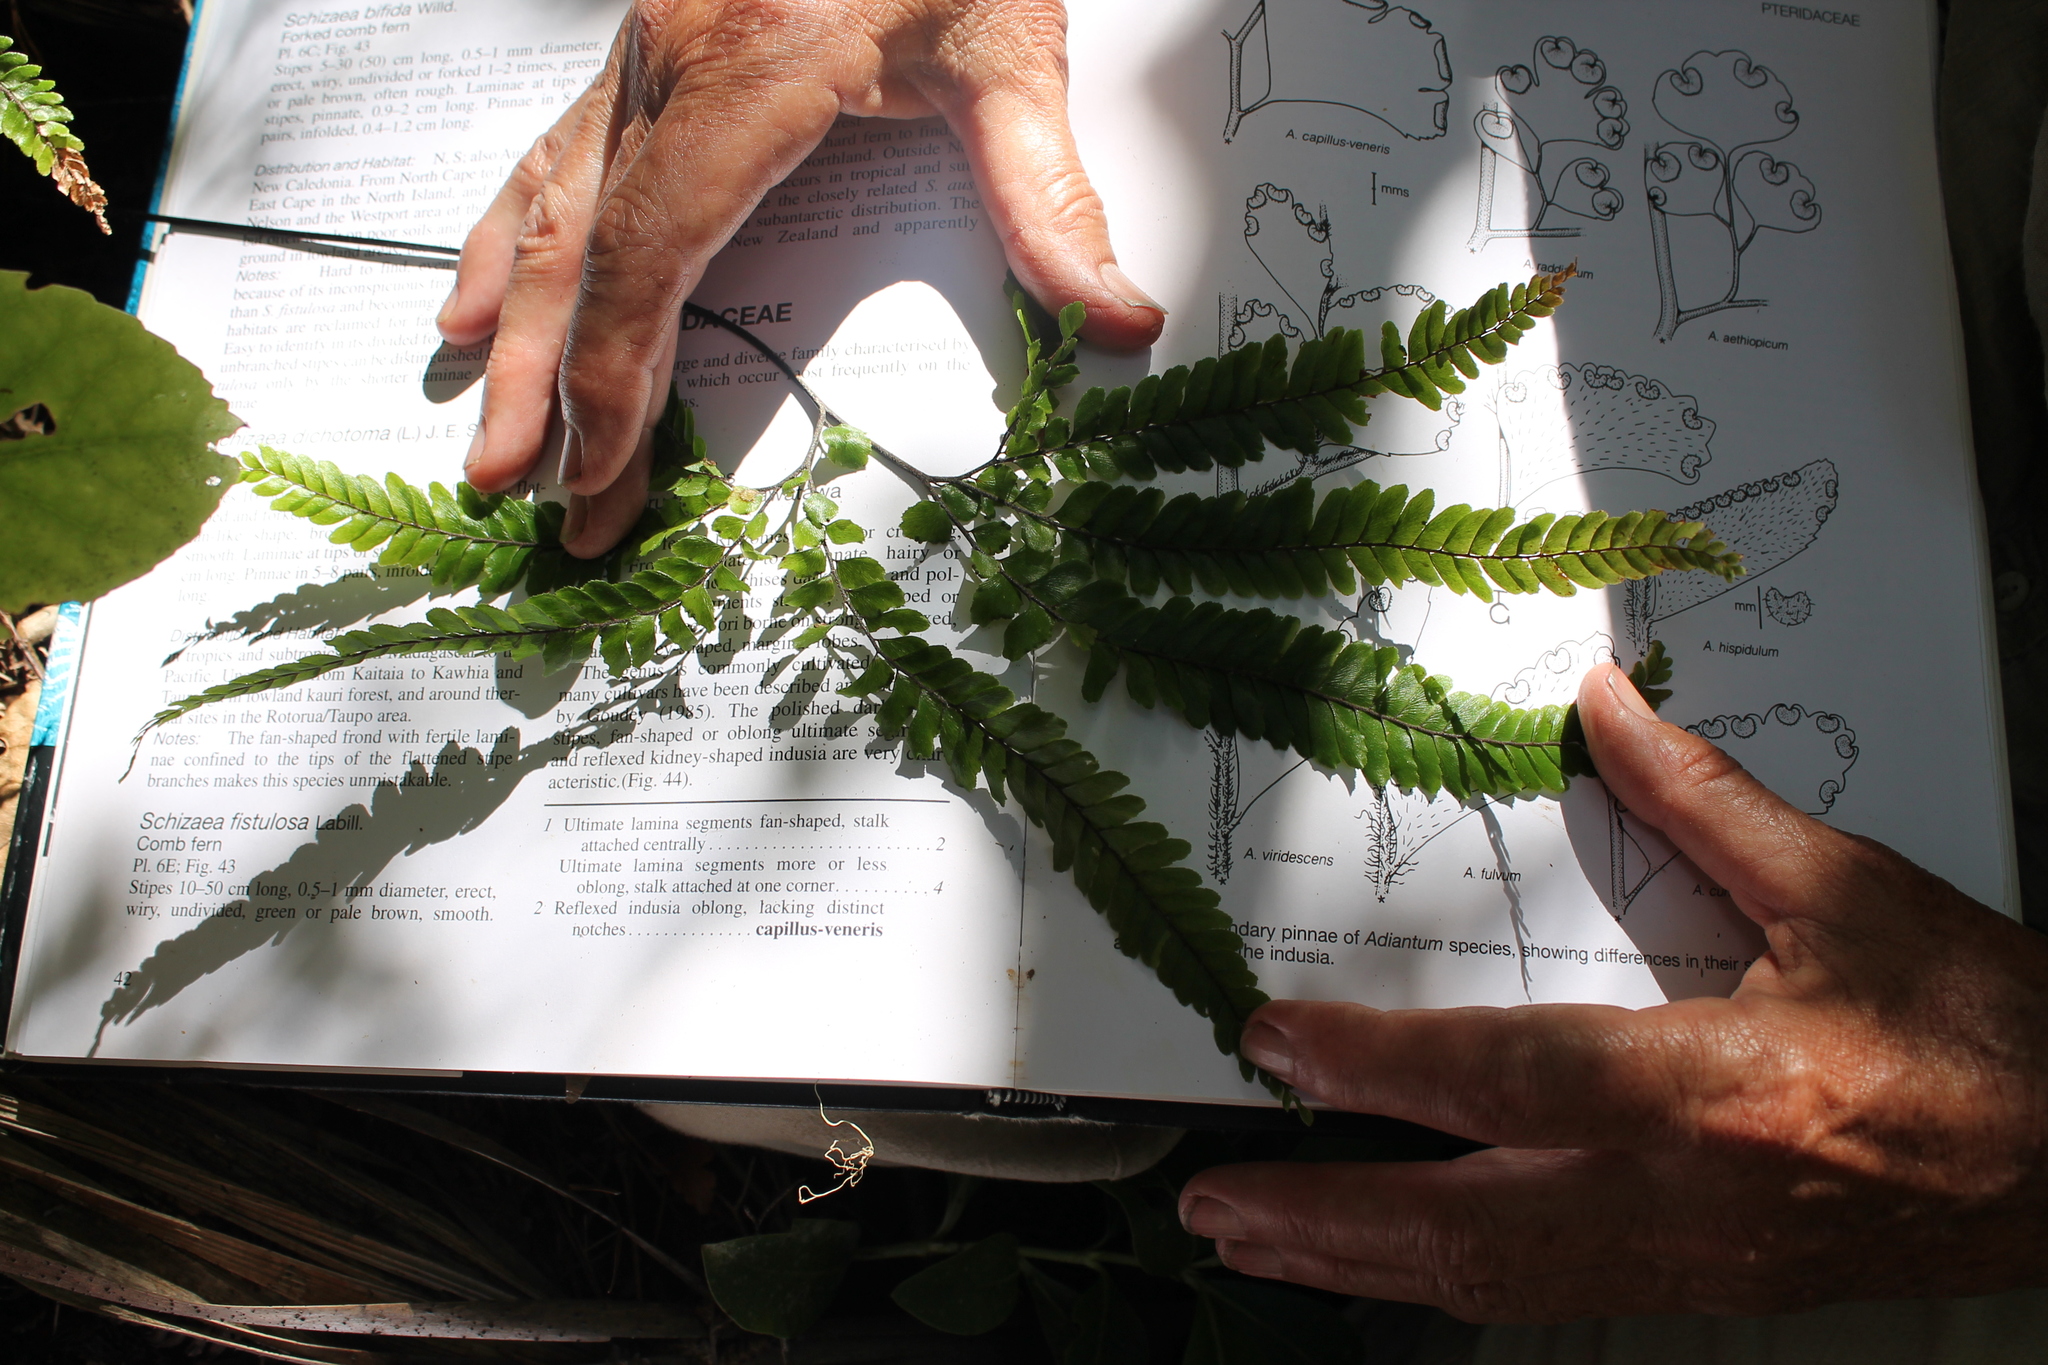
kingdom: Plantae
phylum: Tracheophyta
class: Polypodiopsida
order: Polypodiales
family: Pteridaceae
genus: Adiantum
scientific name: Adiantum hispidulum
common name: Rough maidenhair
